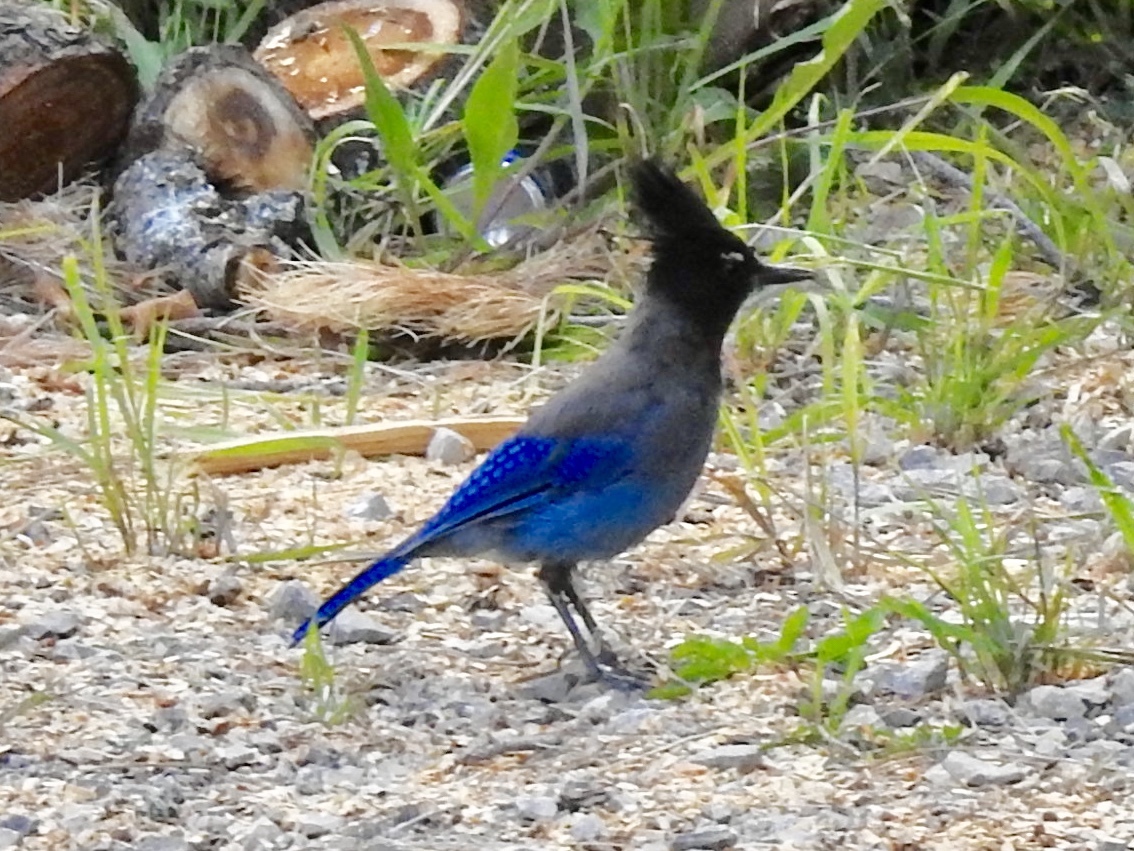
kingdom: Animalia
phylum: Chordata
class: Aves
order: Passeriformes
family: Corvidae
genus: Cyanocitta
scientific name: Cyanocitta stelleri
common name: Steller's jay
